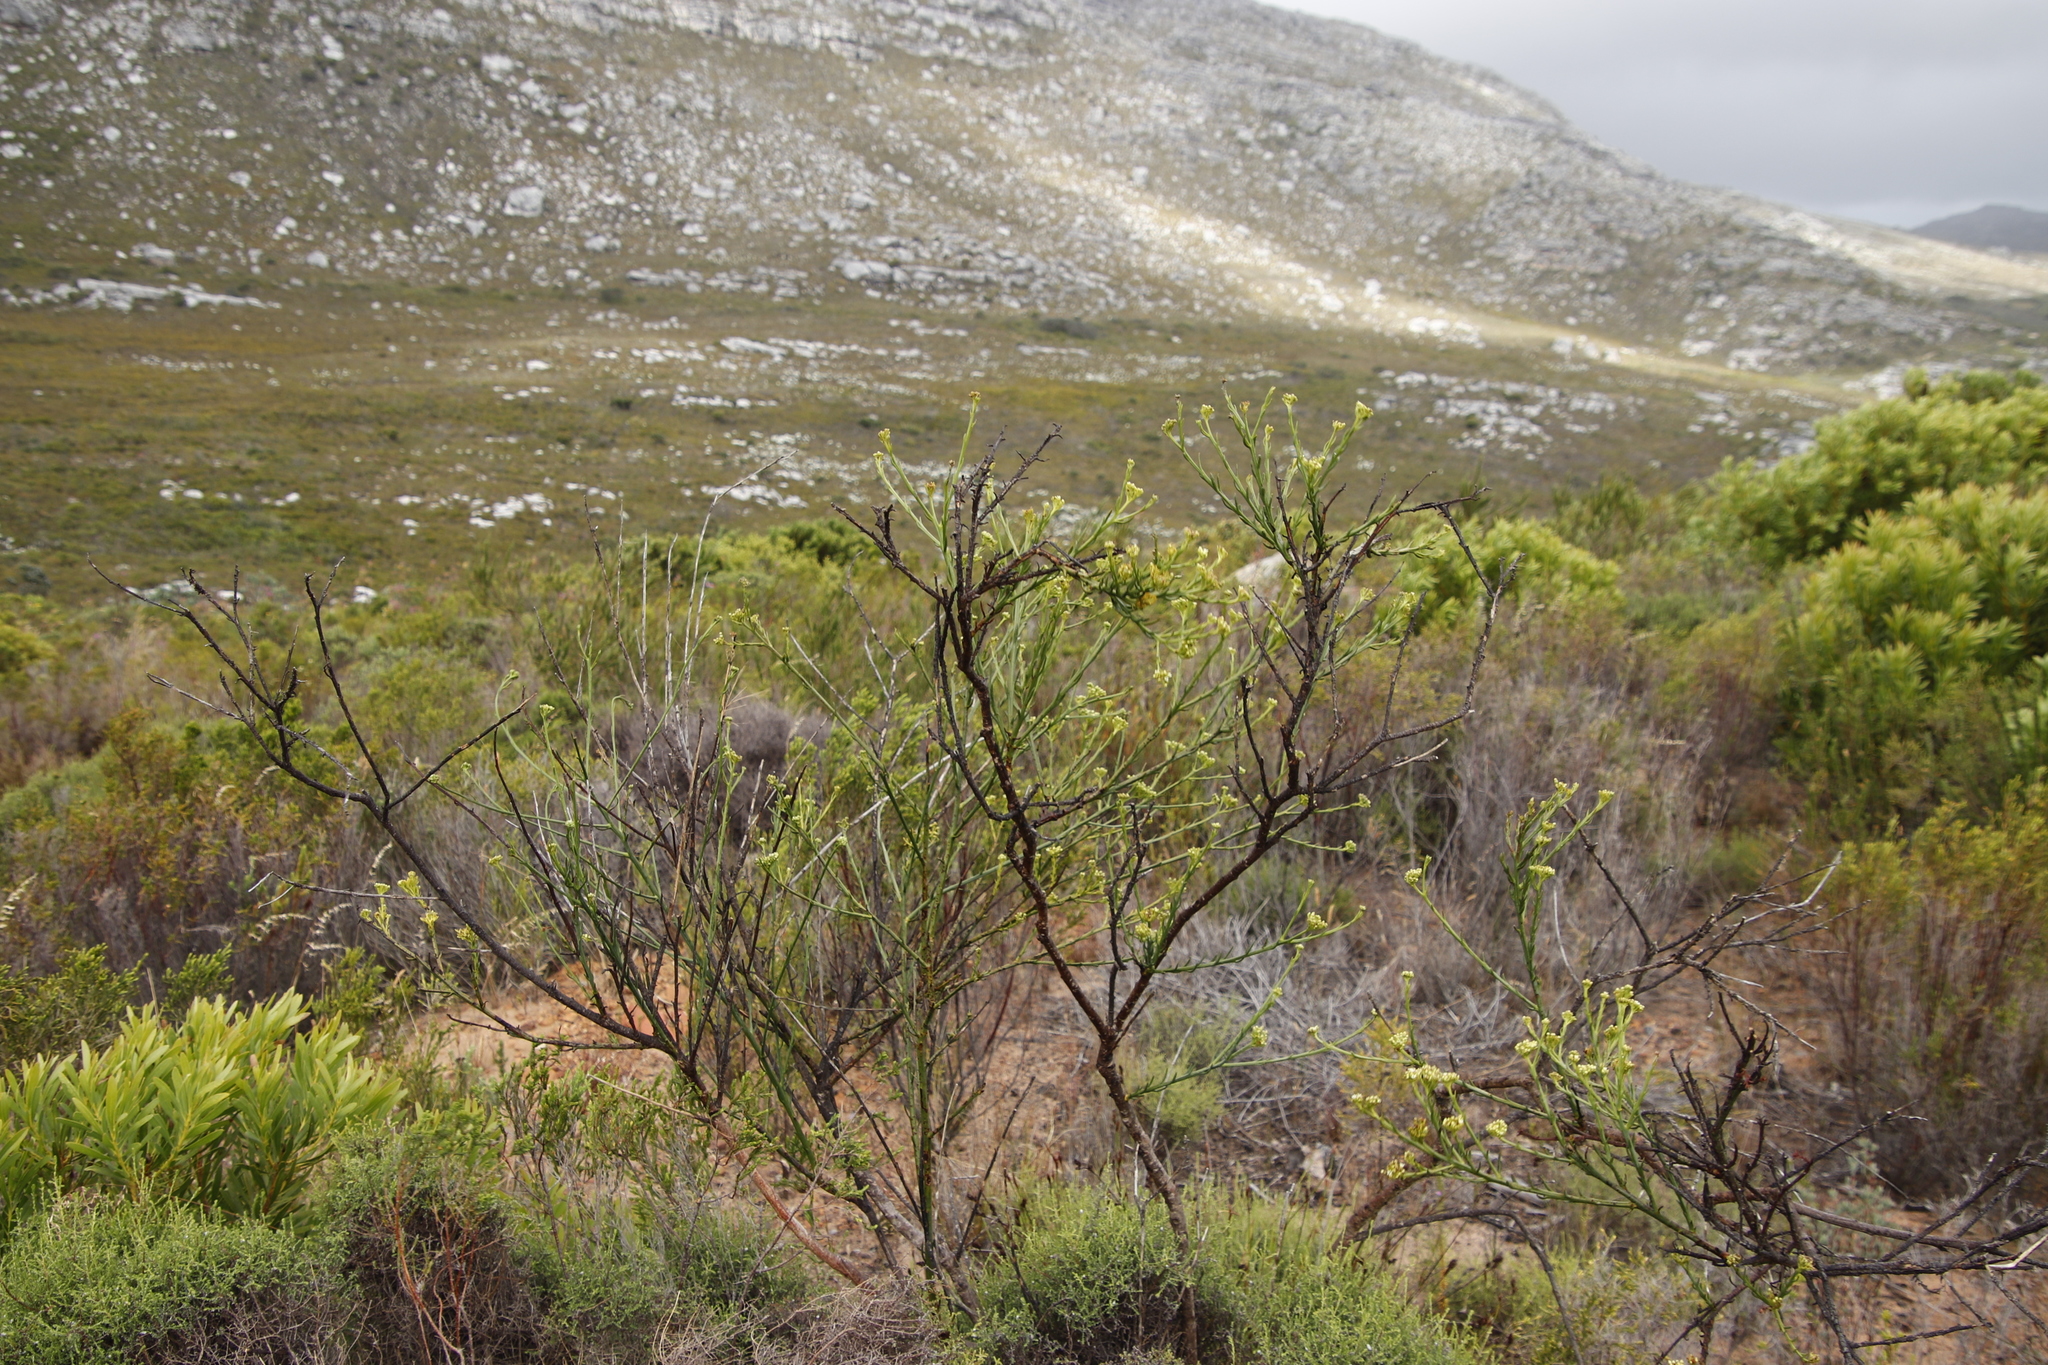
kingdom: Plantae
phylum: Tracheophyta
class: Magnoliopsida
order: Santalales
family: Thesiaceae
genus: Thesium
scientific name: Thesium strictum
